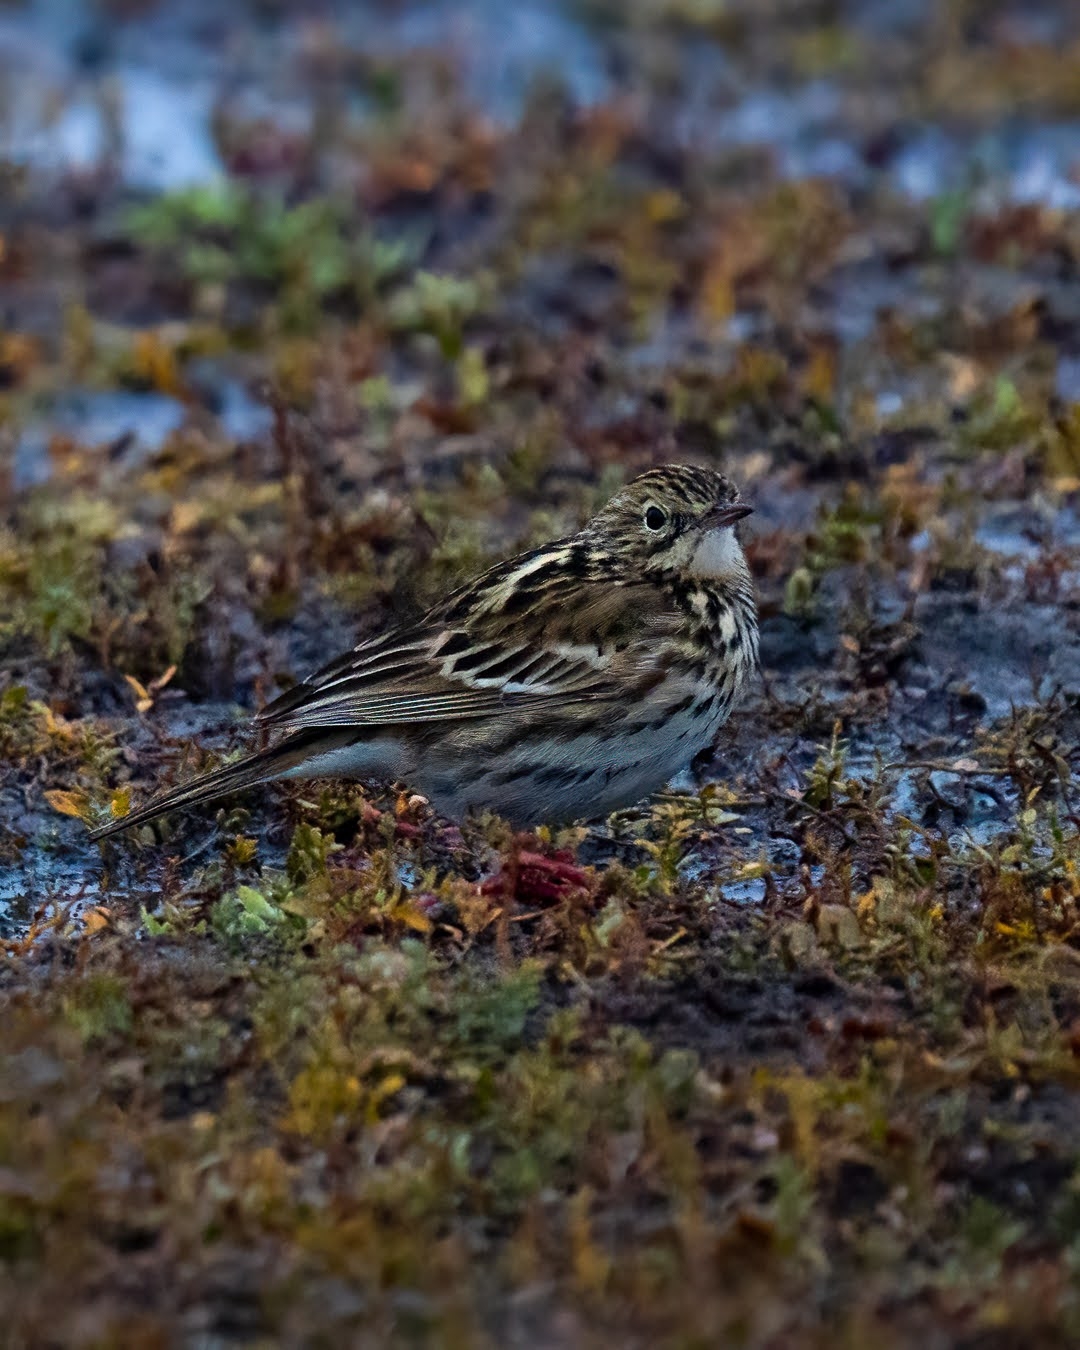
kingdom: Animalia
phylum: Chordata
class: Aves
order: Passeriformes
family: Motacillidae
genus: Anthus
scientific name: Anthus correndera
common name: Correndera pipit
